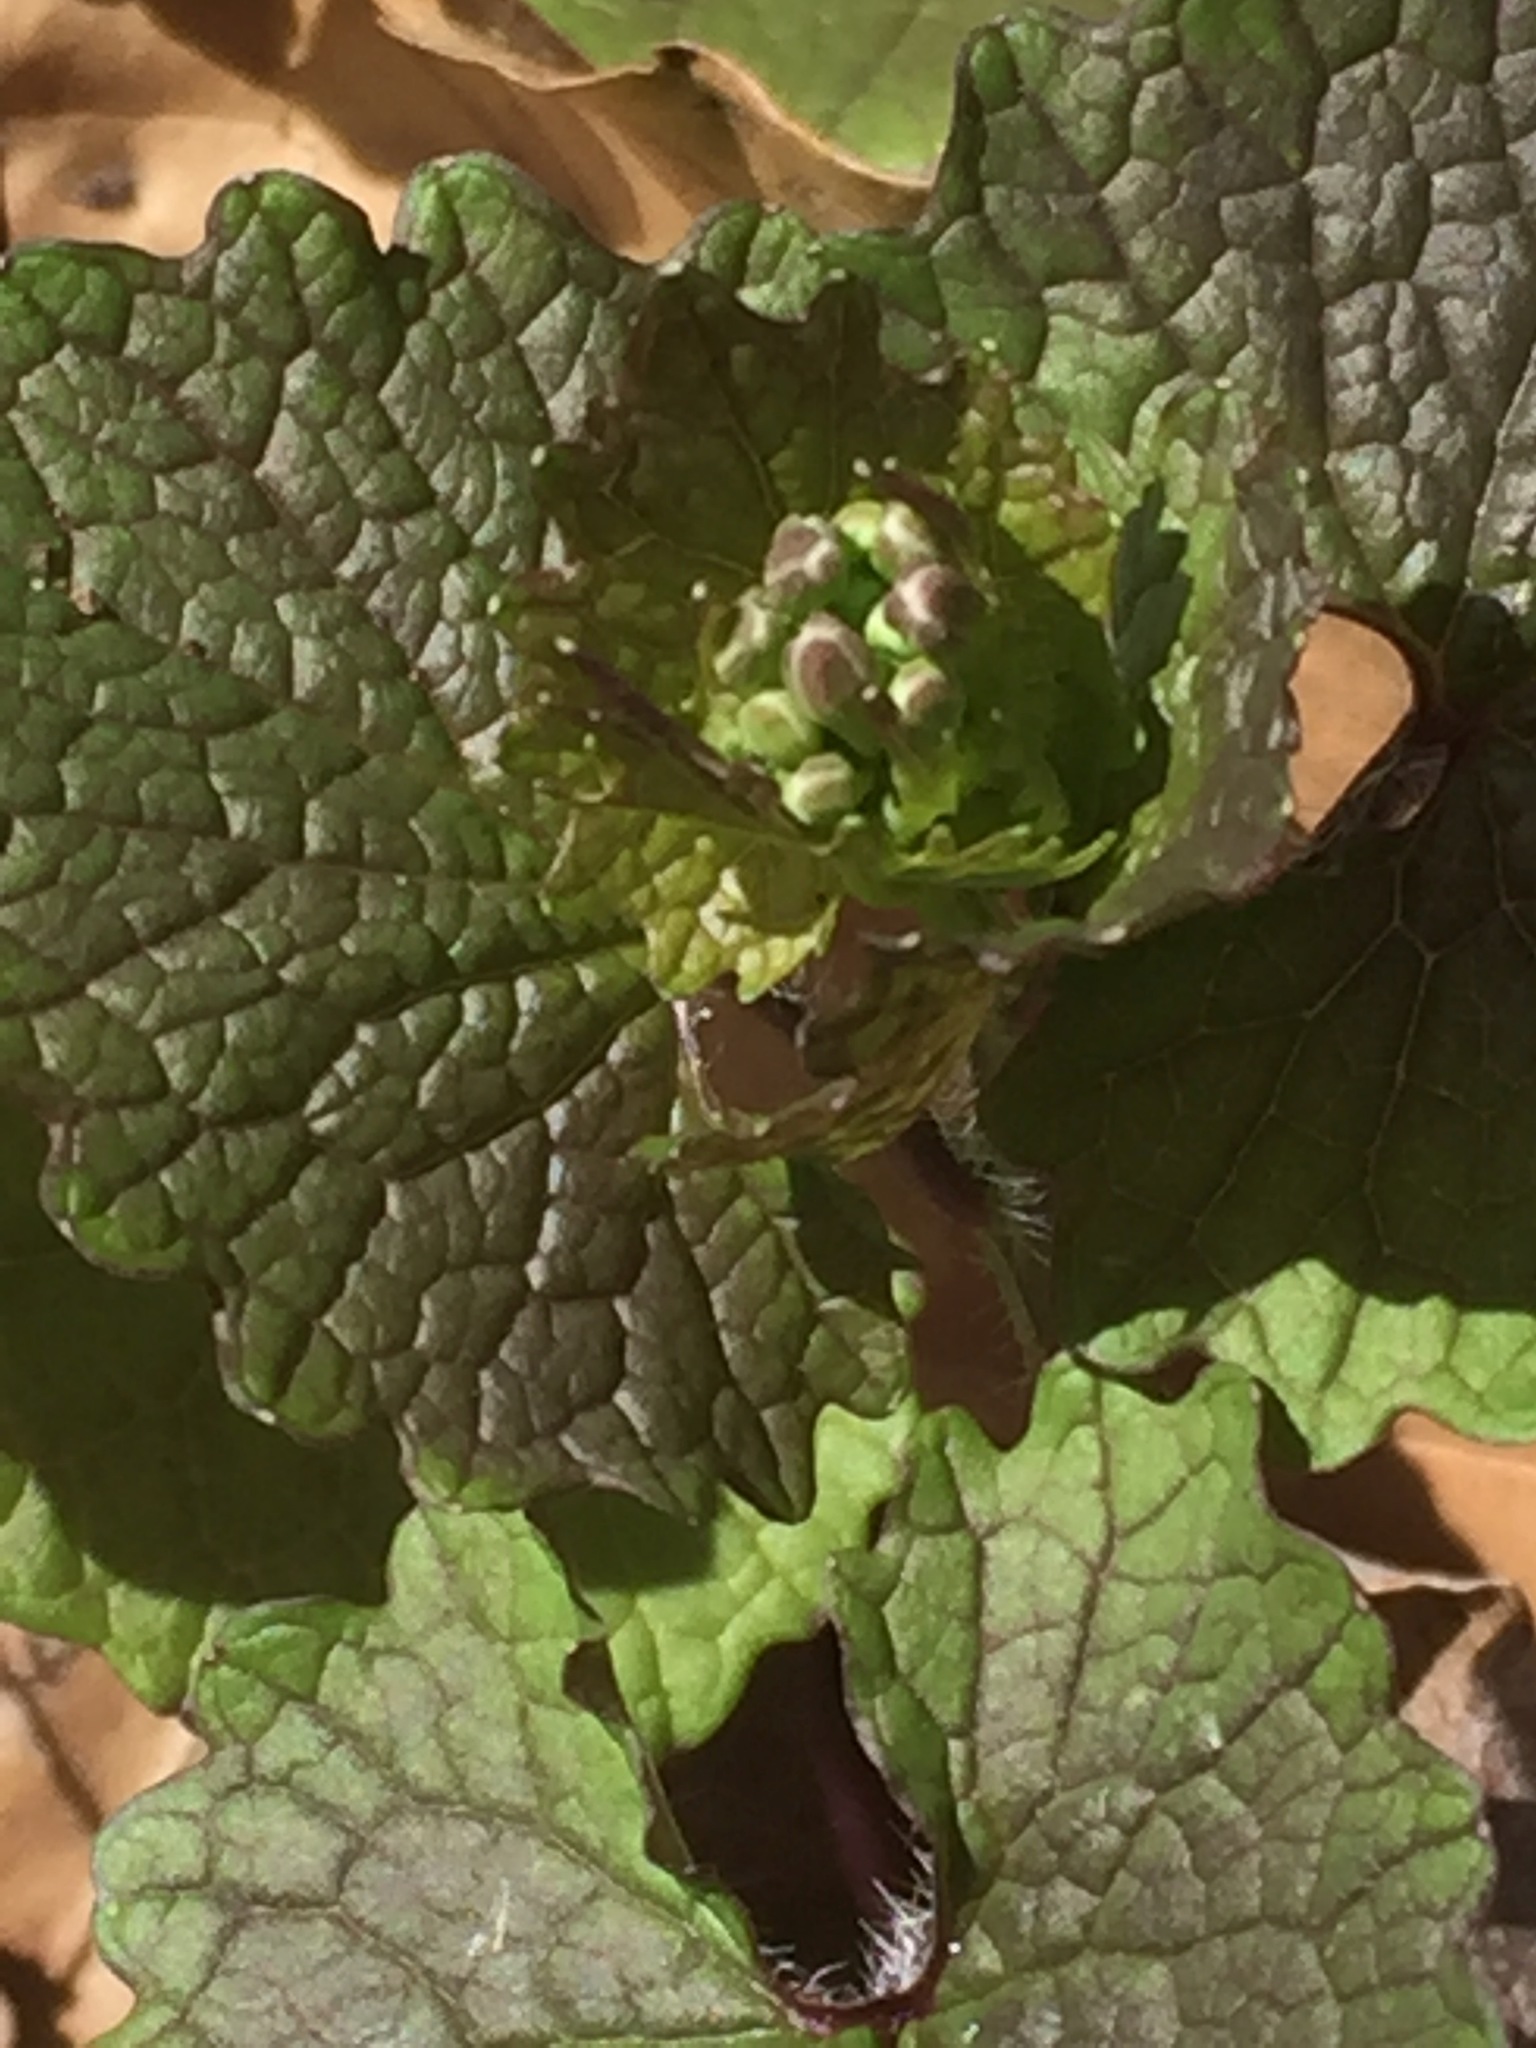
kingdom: Plantae
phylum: Tracheophyta
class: Magnoliopsida
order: Brassicales
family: Brassicaceae
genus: Alliaria
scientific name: Alliaria petiolata
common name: Garlic mustard
